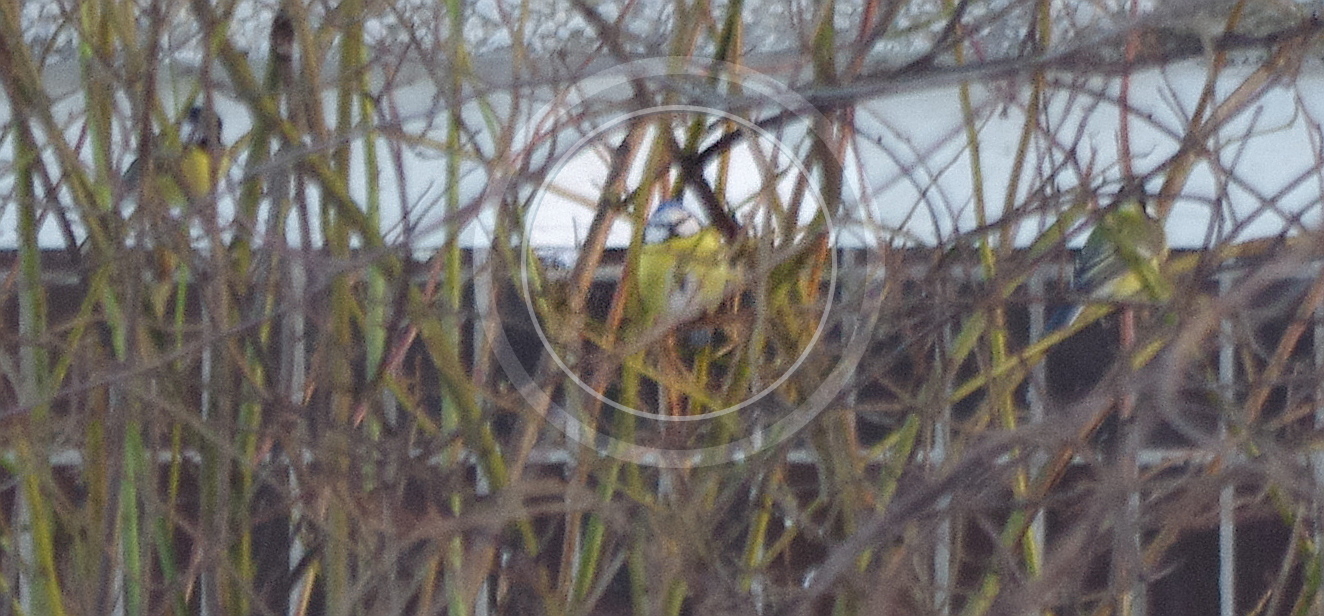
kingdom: Animalia
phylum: Chordata
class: Aves
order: Passeriformes
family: Paridae
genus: Cyanistes
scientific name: Cyanistes caeruleus
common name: Eurasian blue tit
